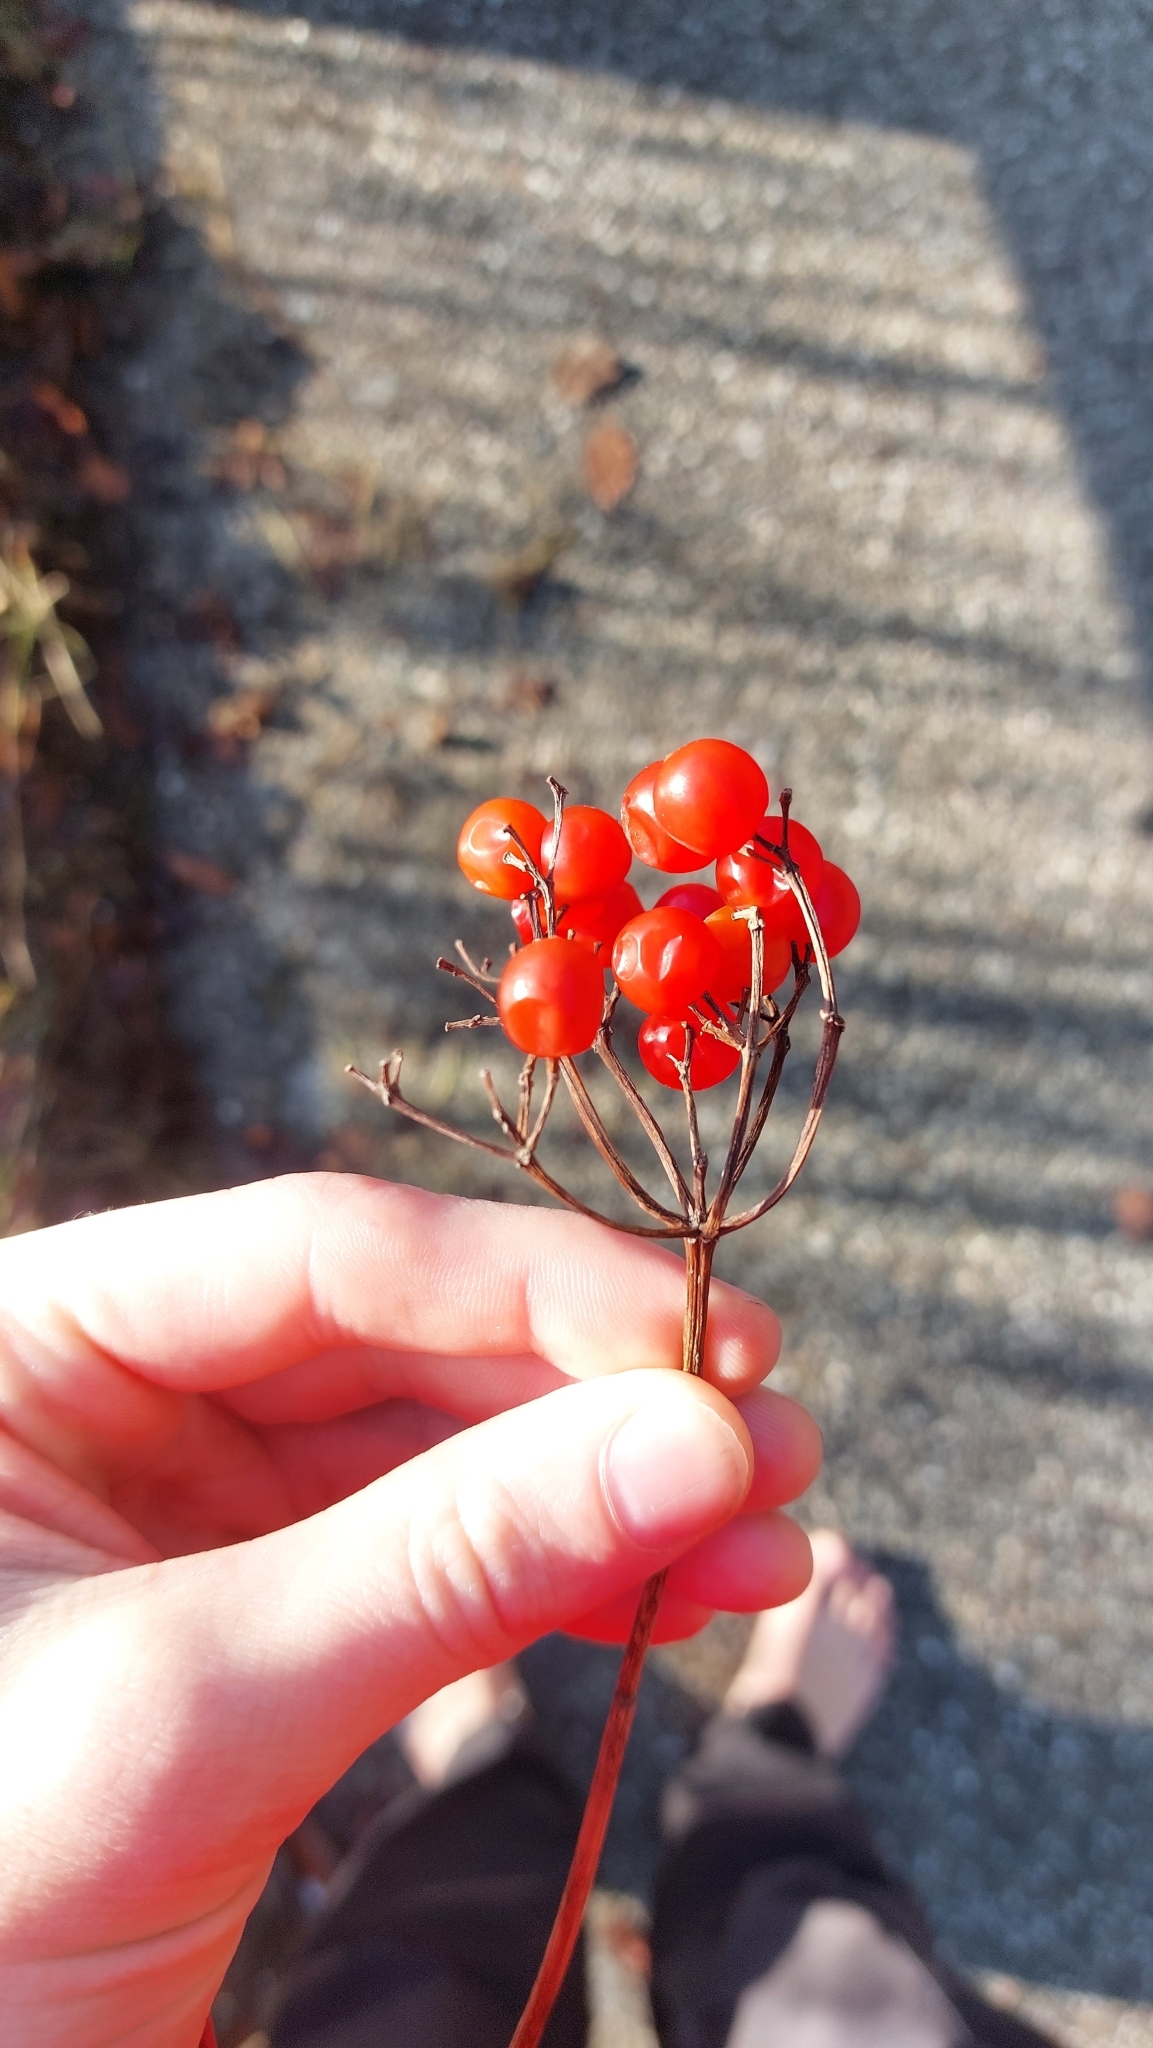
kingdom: Plantae
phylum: Tracheophyta
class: Magnoliopsida
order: Dipsacales
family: Viburnaceae
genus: Viburnum
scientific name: Viburnum opulus
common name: Guelder-rose
